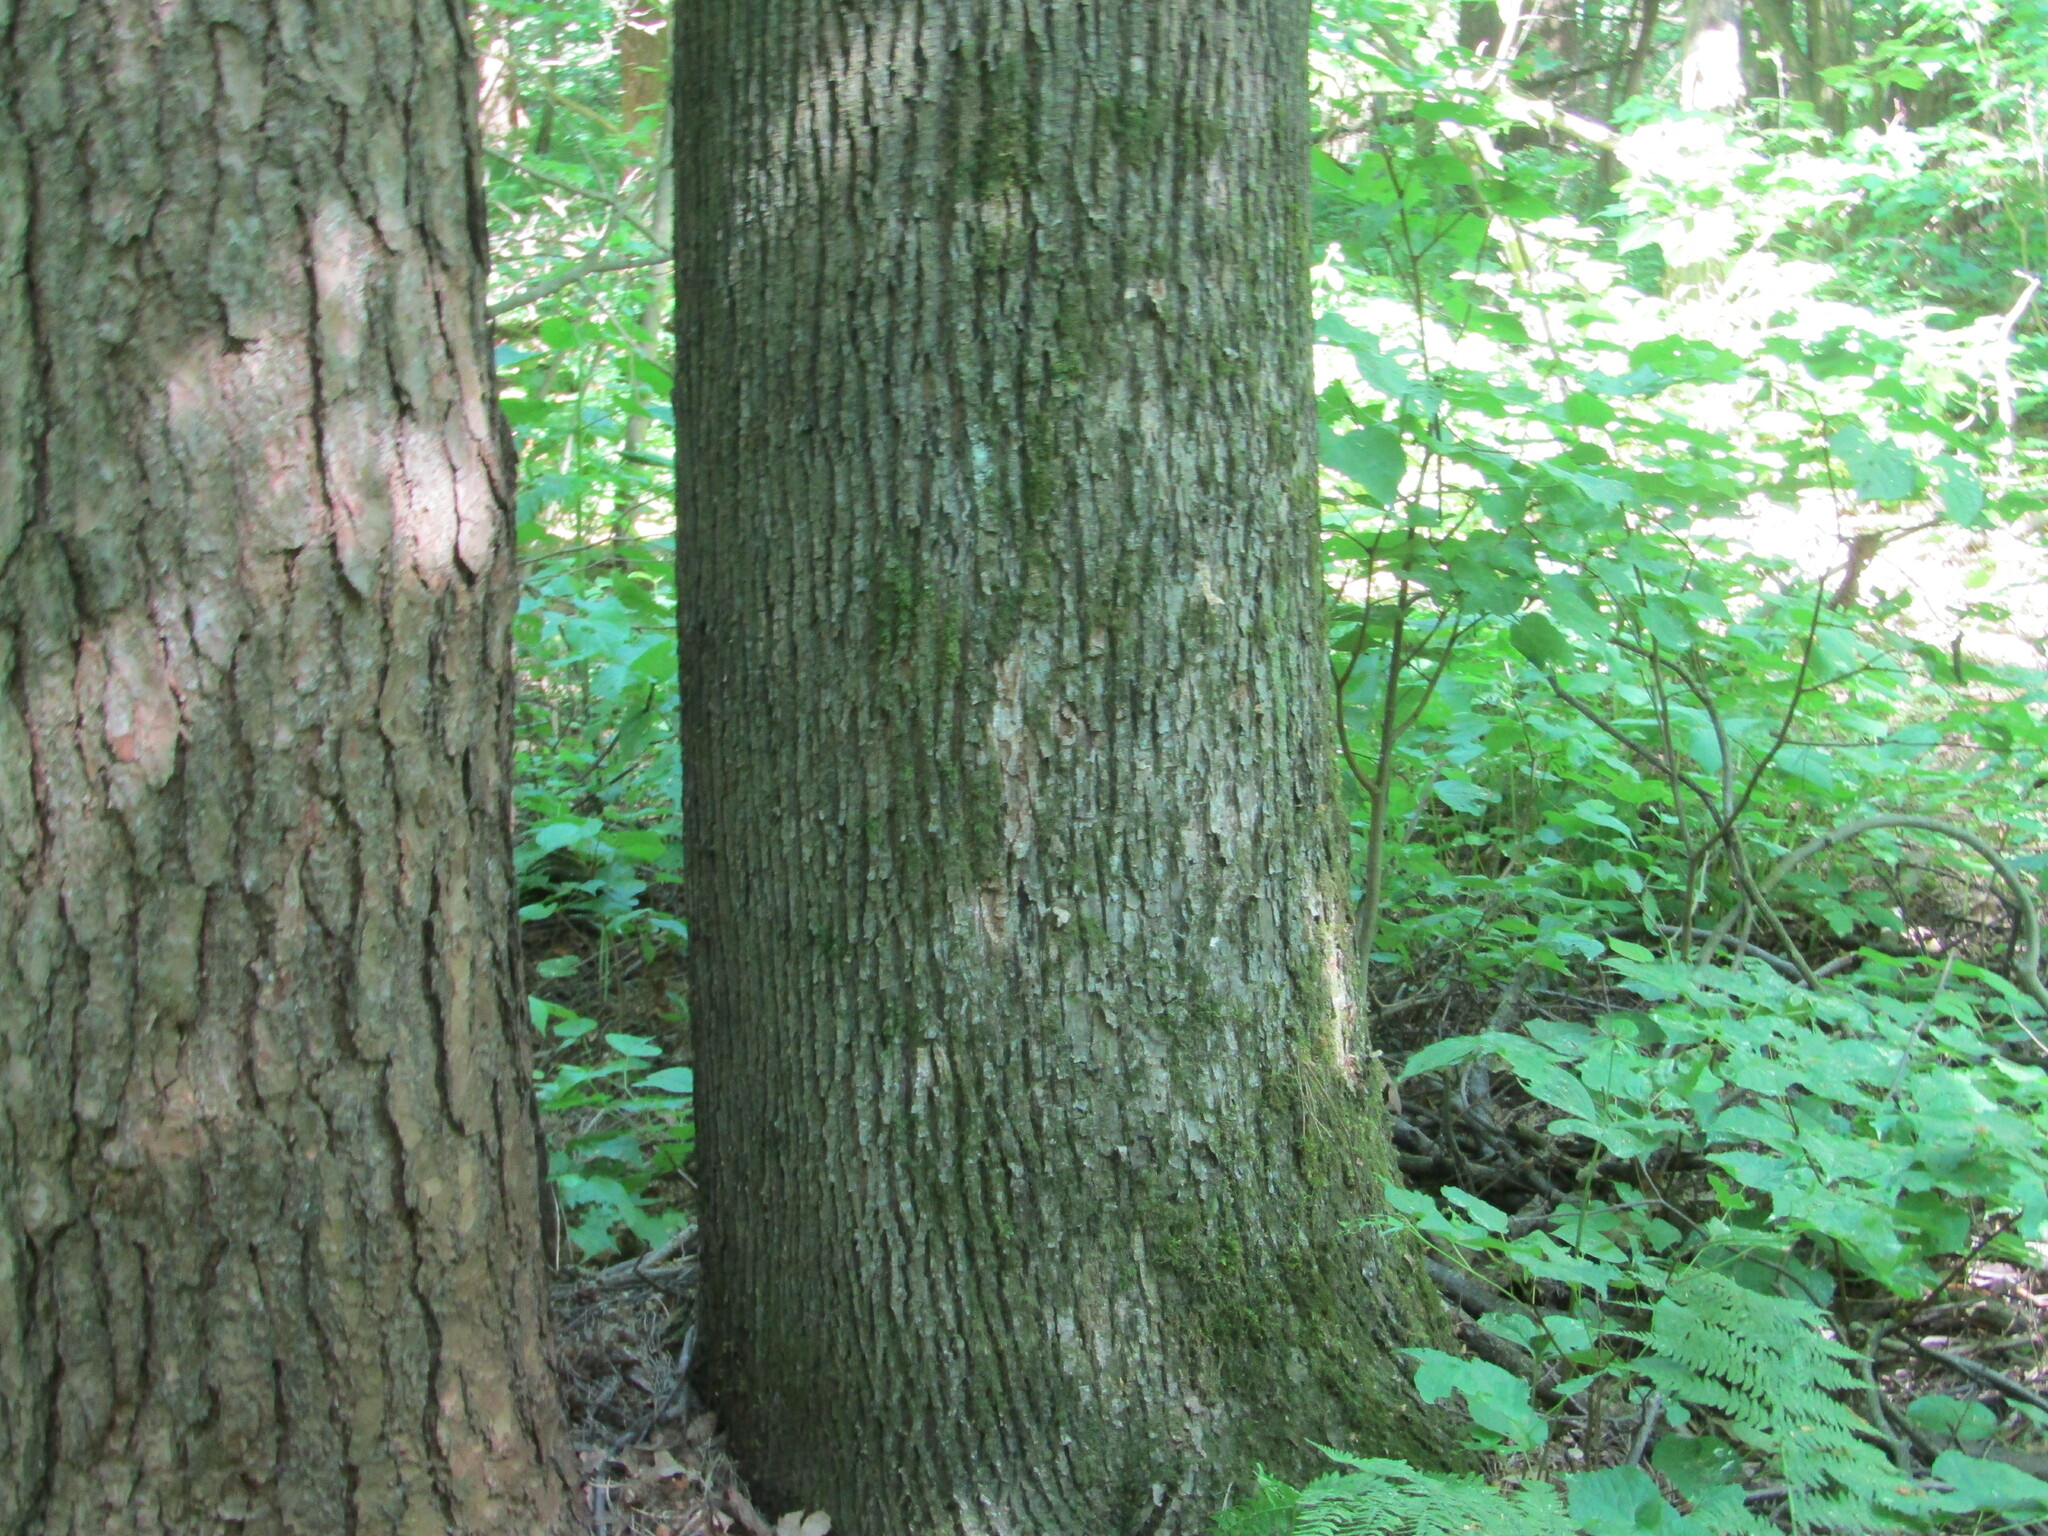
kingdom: Plantae
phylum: Tracheophyta
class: Magnoliopsida
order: Malvales
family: Malvaceae
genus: Tilia
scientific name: Tilia cordata
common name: Small-leaved lime
